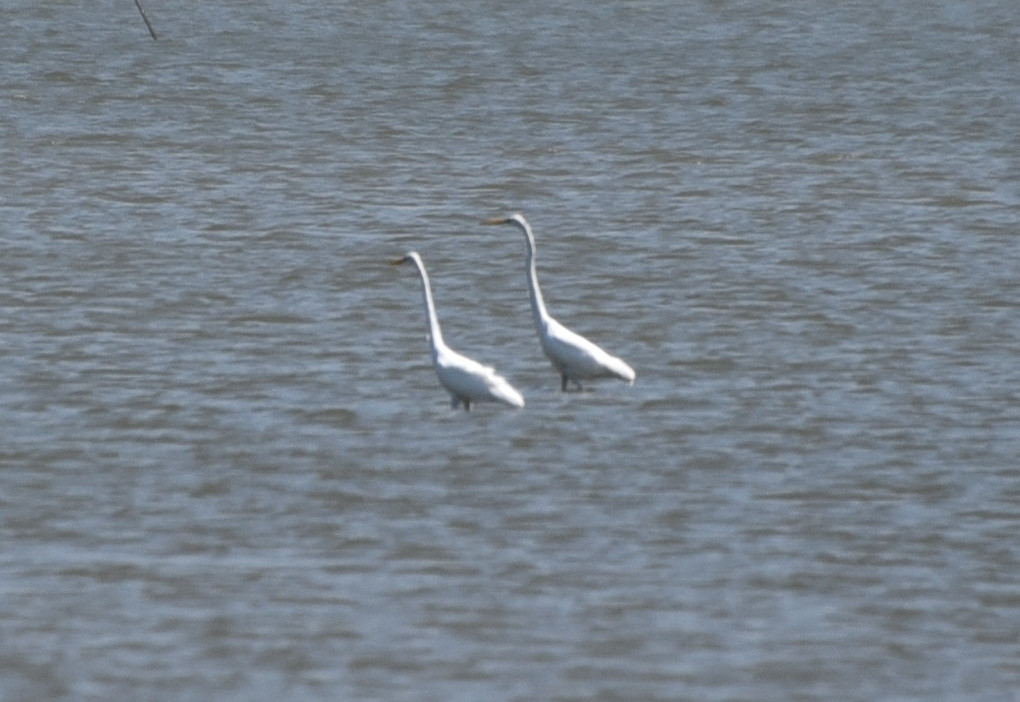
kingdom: Animalia
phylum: Chordata
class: Aves
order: Pelecaniformes
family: Ardeidae
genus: Ardea
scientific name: Ardea alba
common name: Great egret
